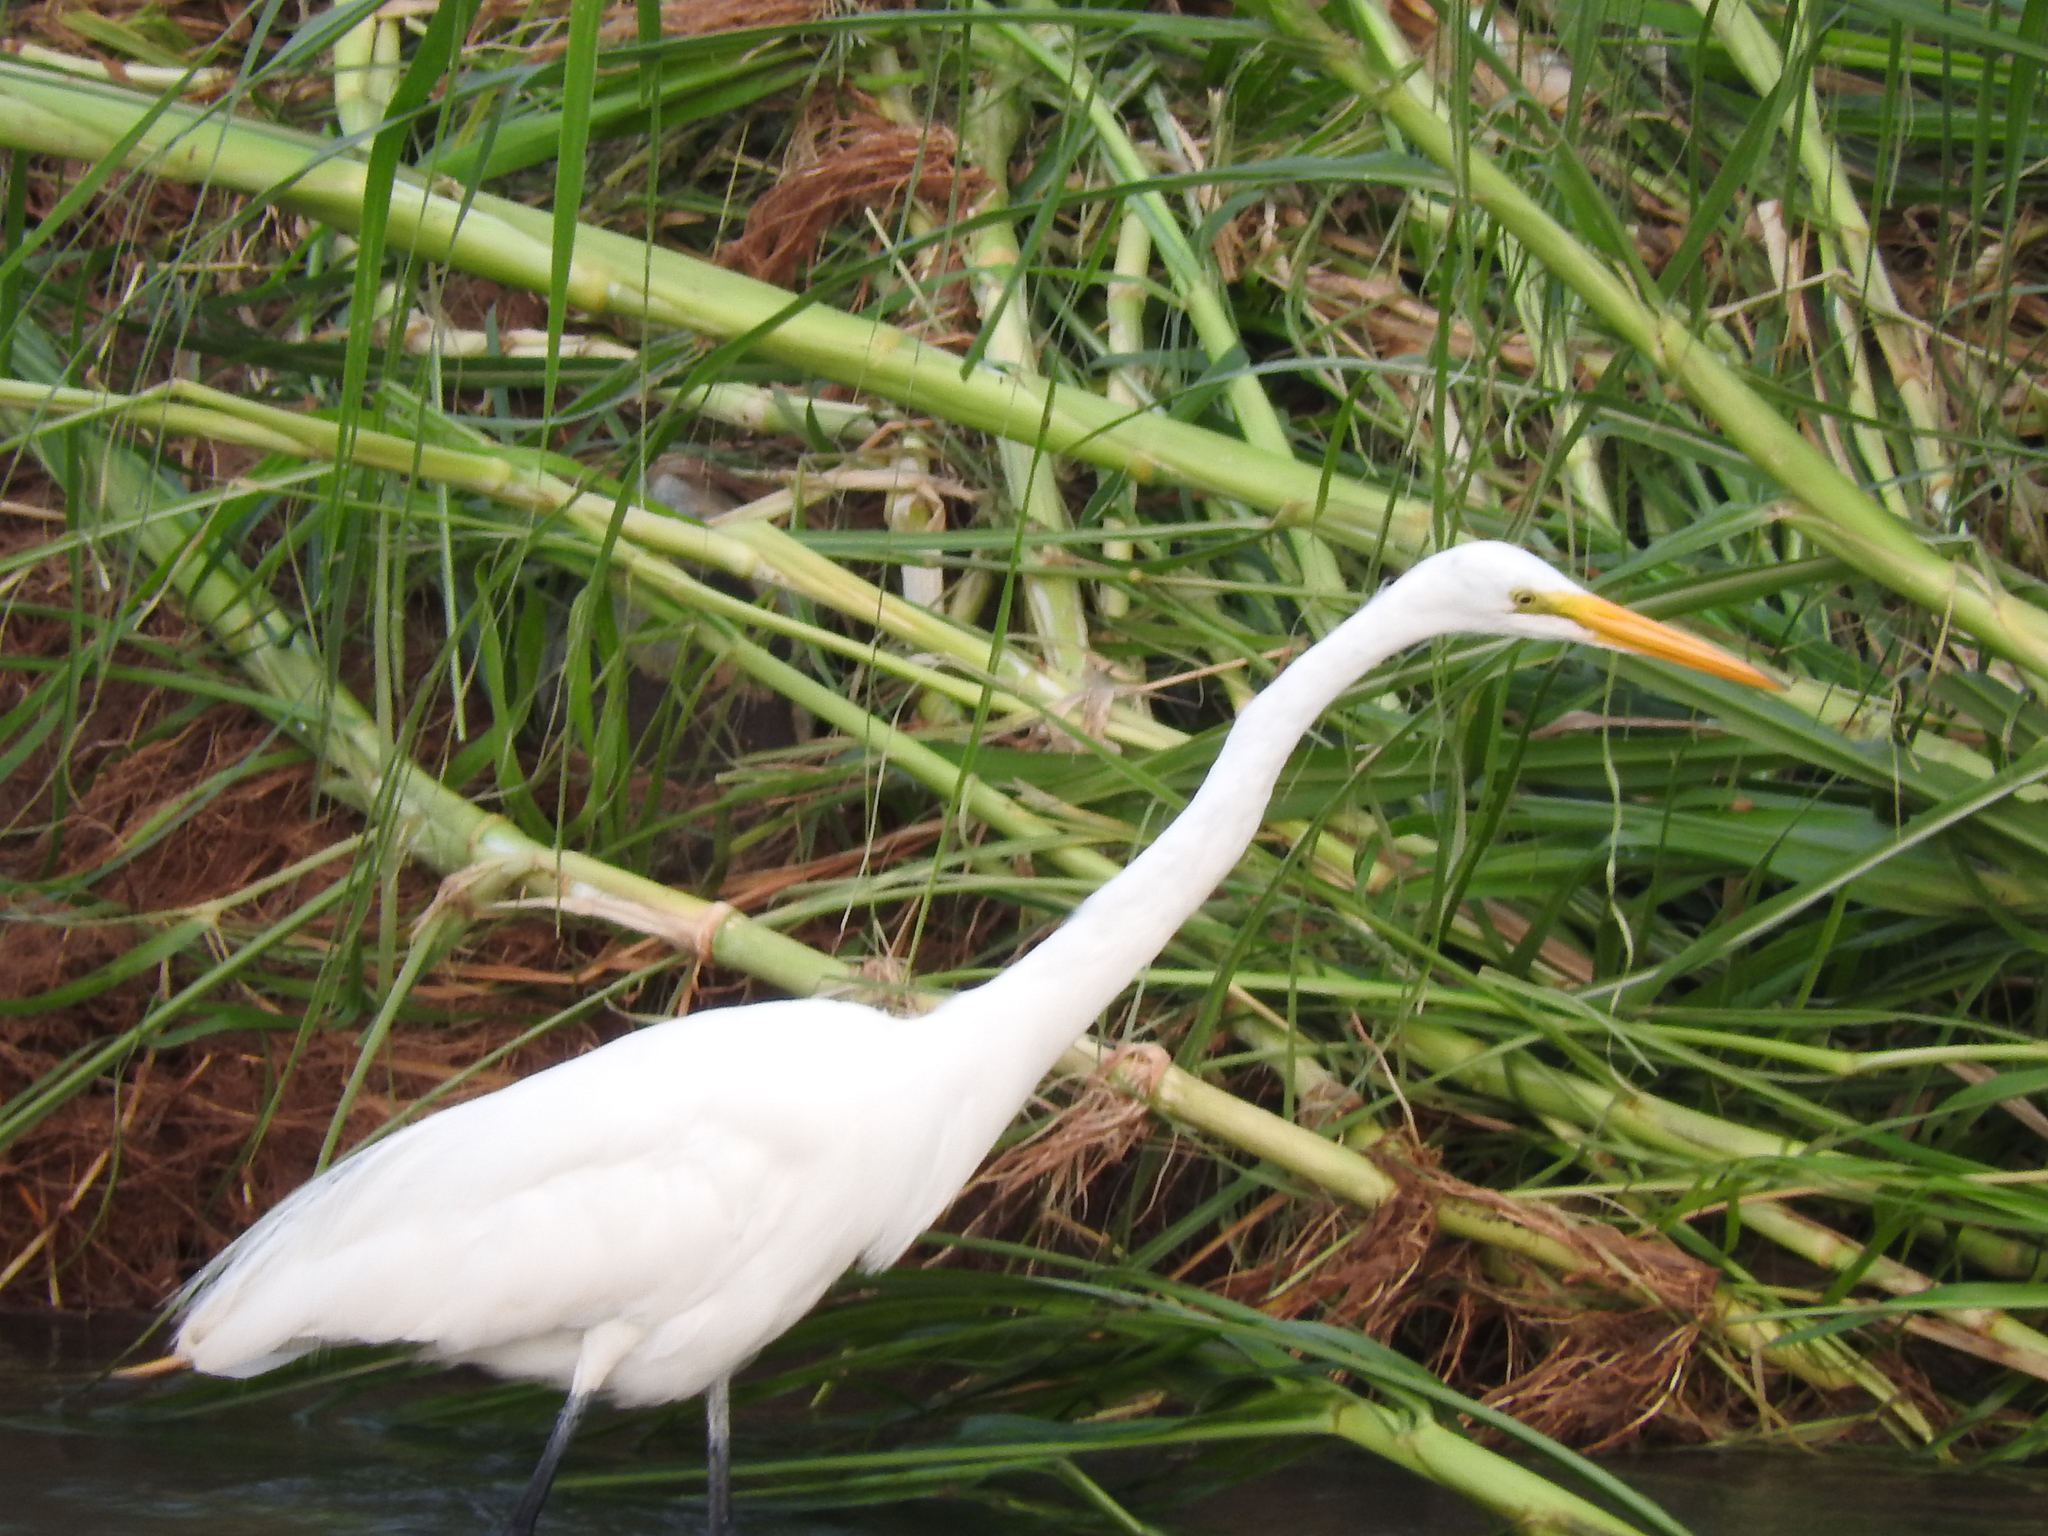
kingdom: Animalia
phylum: Chordata
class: Aves
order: Pelecaniformes
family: Ardeidae
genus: Ardea
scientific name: Ardea alba
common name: Great egret
